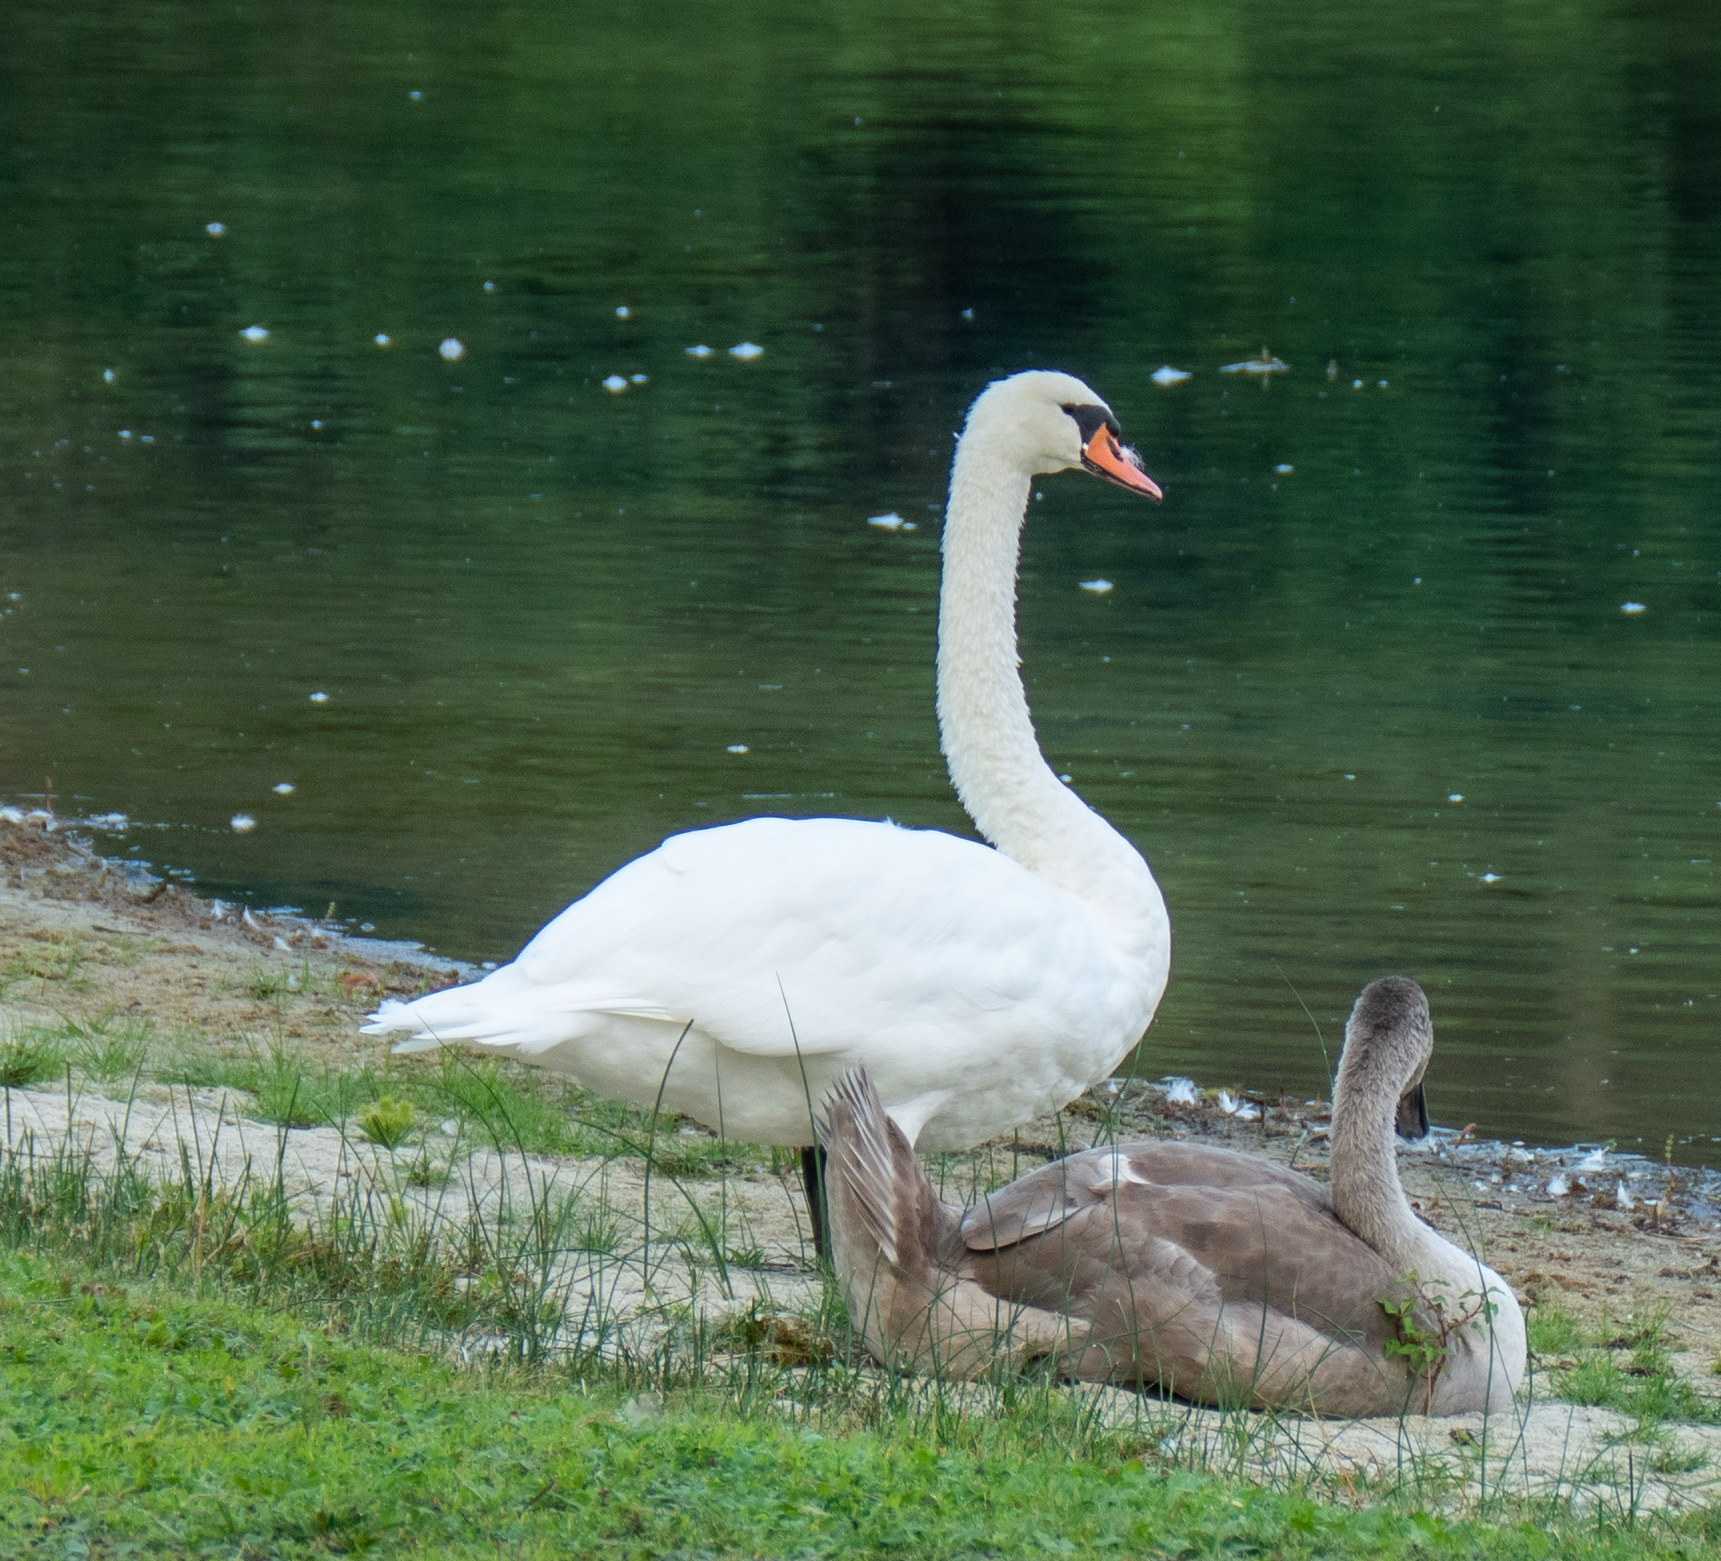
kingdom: Animalia
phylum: Chordata
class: Aves
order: Anseriformes
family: Anatidae
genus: Cygnus
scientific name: Cygnus olor
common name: Mute swan
